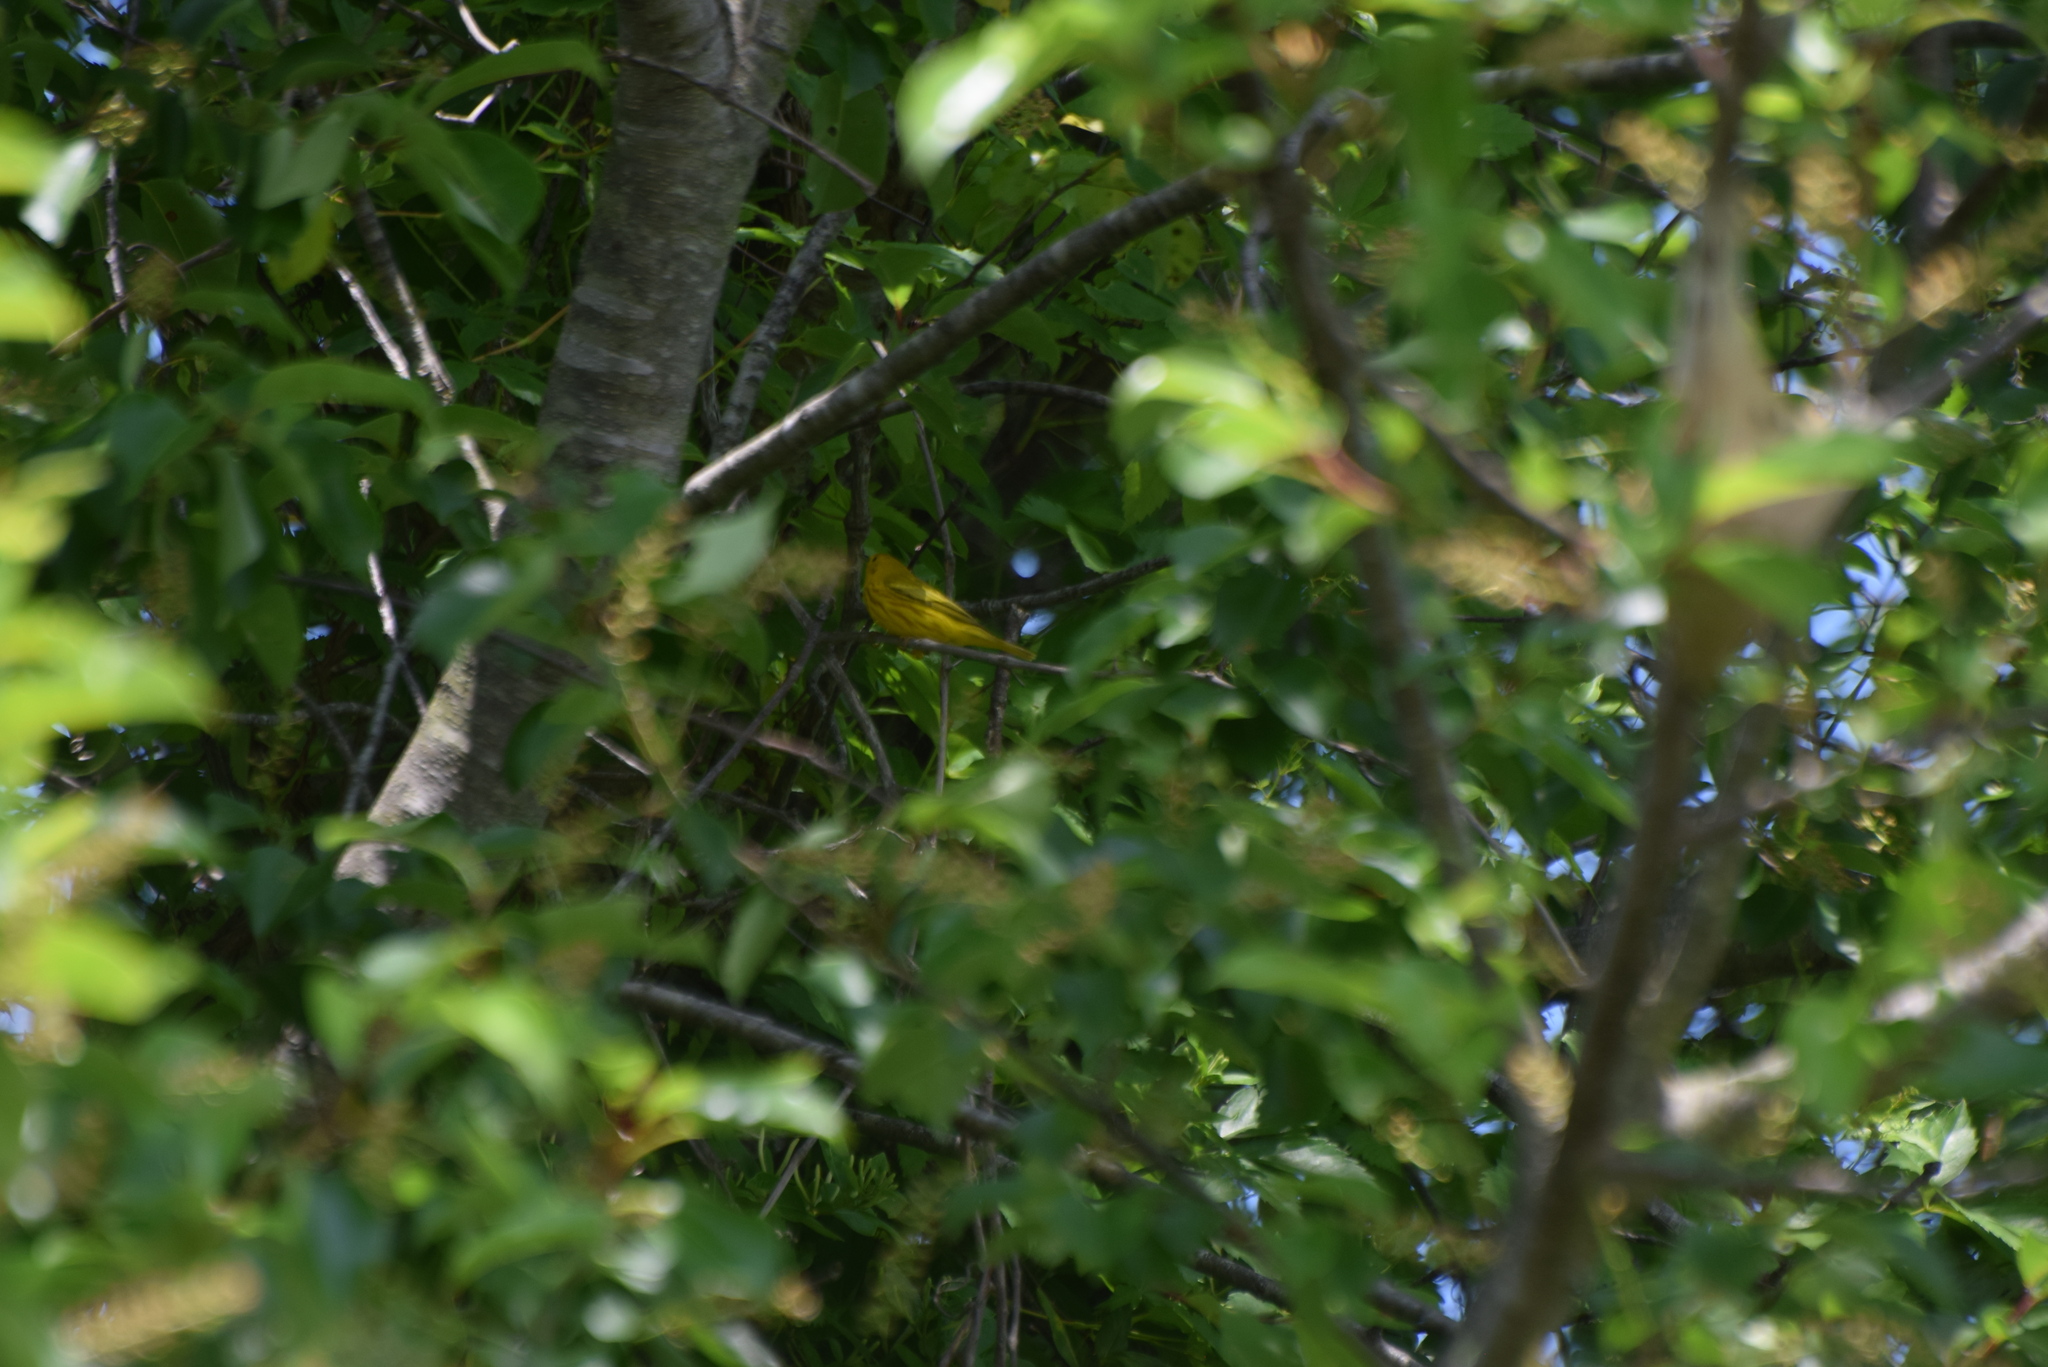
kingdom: Animalia
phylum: Chordata
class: Aves
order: Passeriformes
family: Parulidae
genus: Setophaga
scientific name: Setophaga petechia
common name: Yellow warbler
